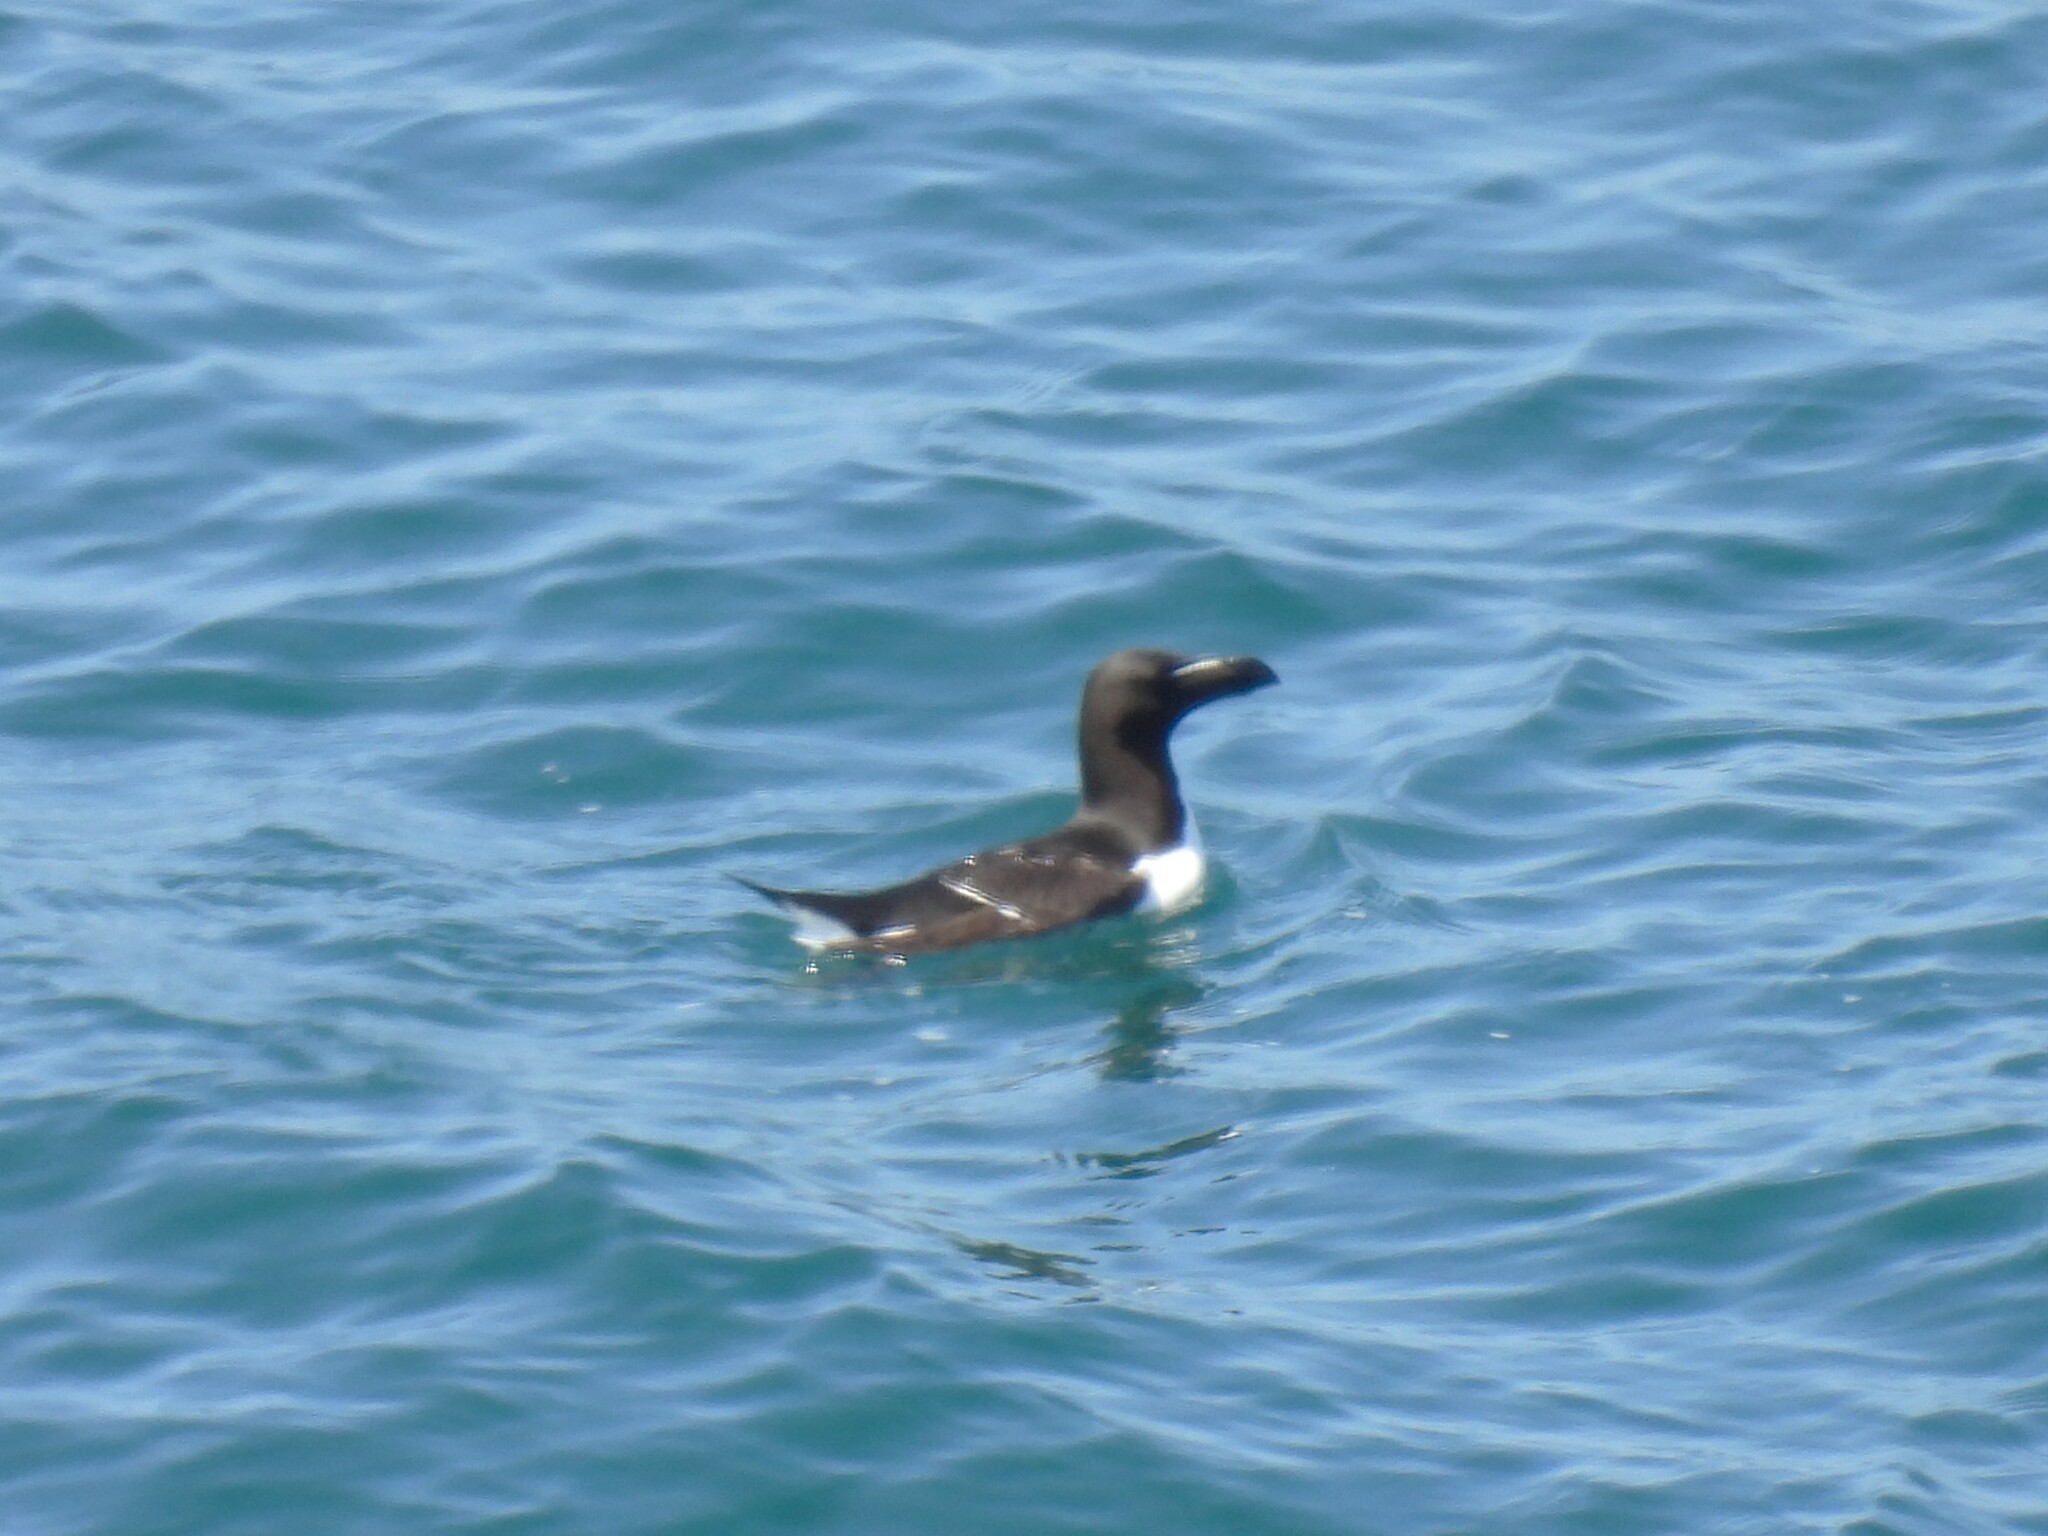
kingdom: Animalia
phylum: Chordata
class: Aves
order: Charadriiformes
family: Alcidae
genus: Alca
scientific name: Alca torda
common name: Razorbill
